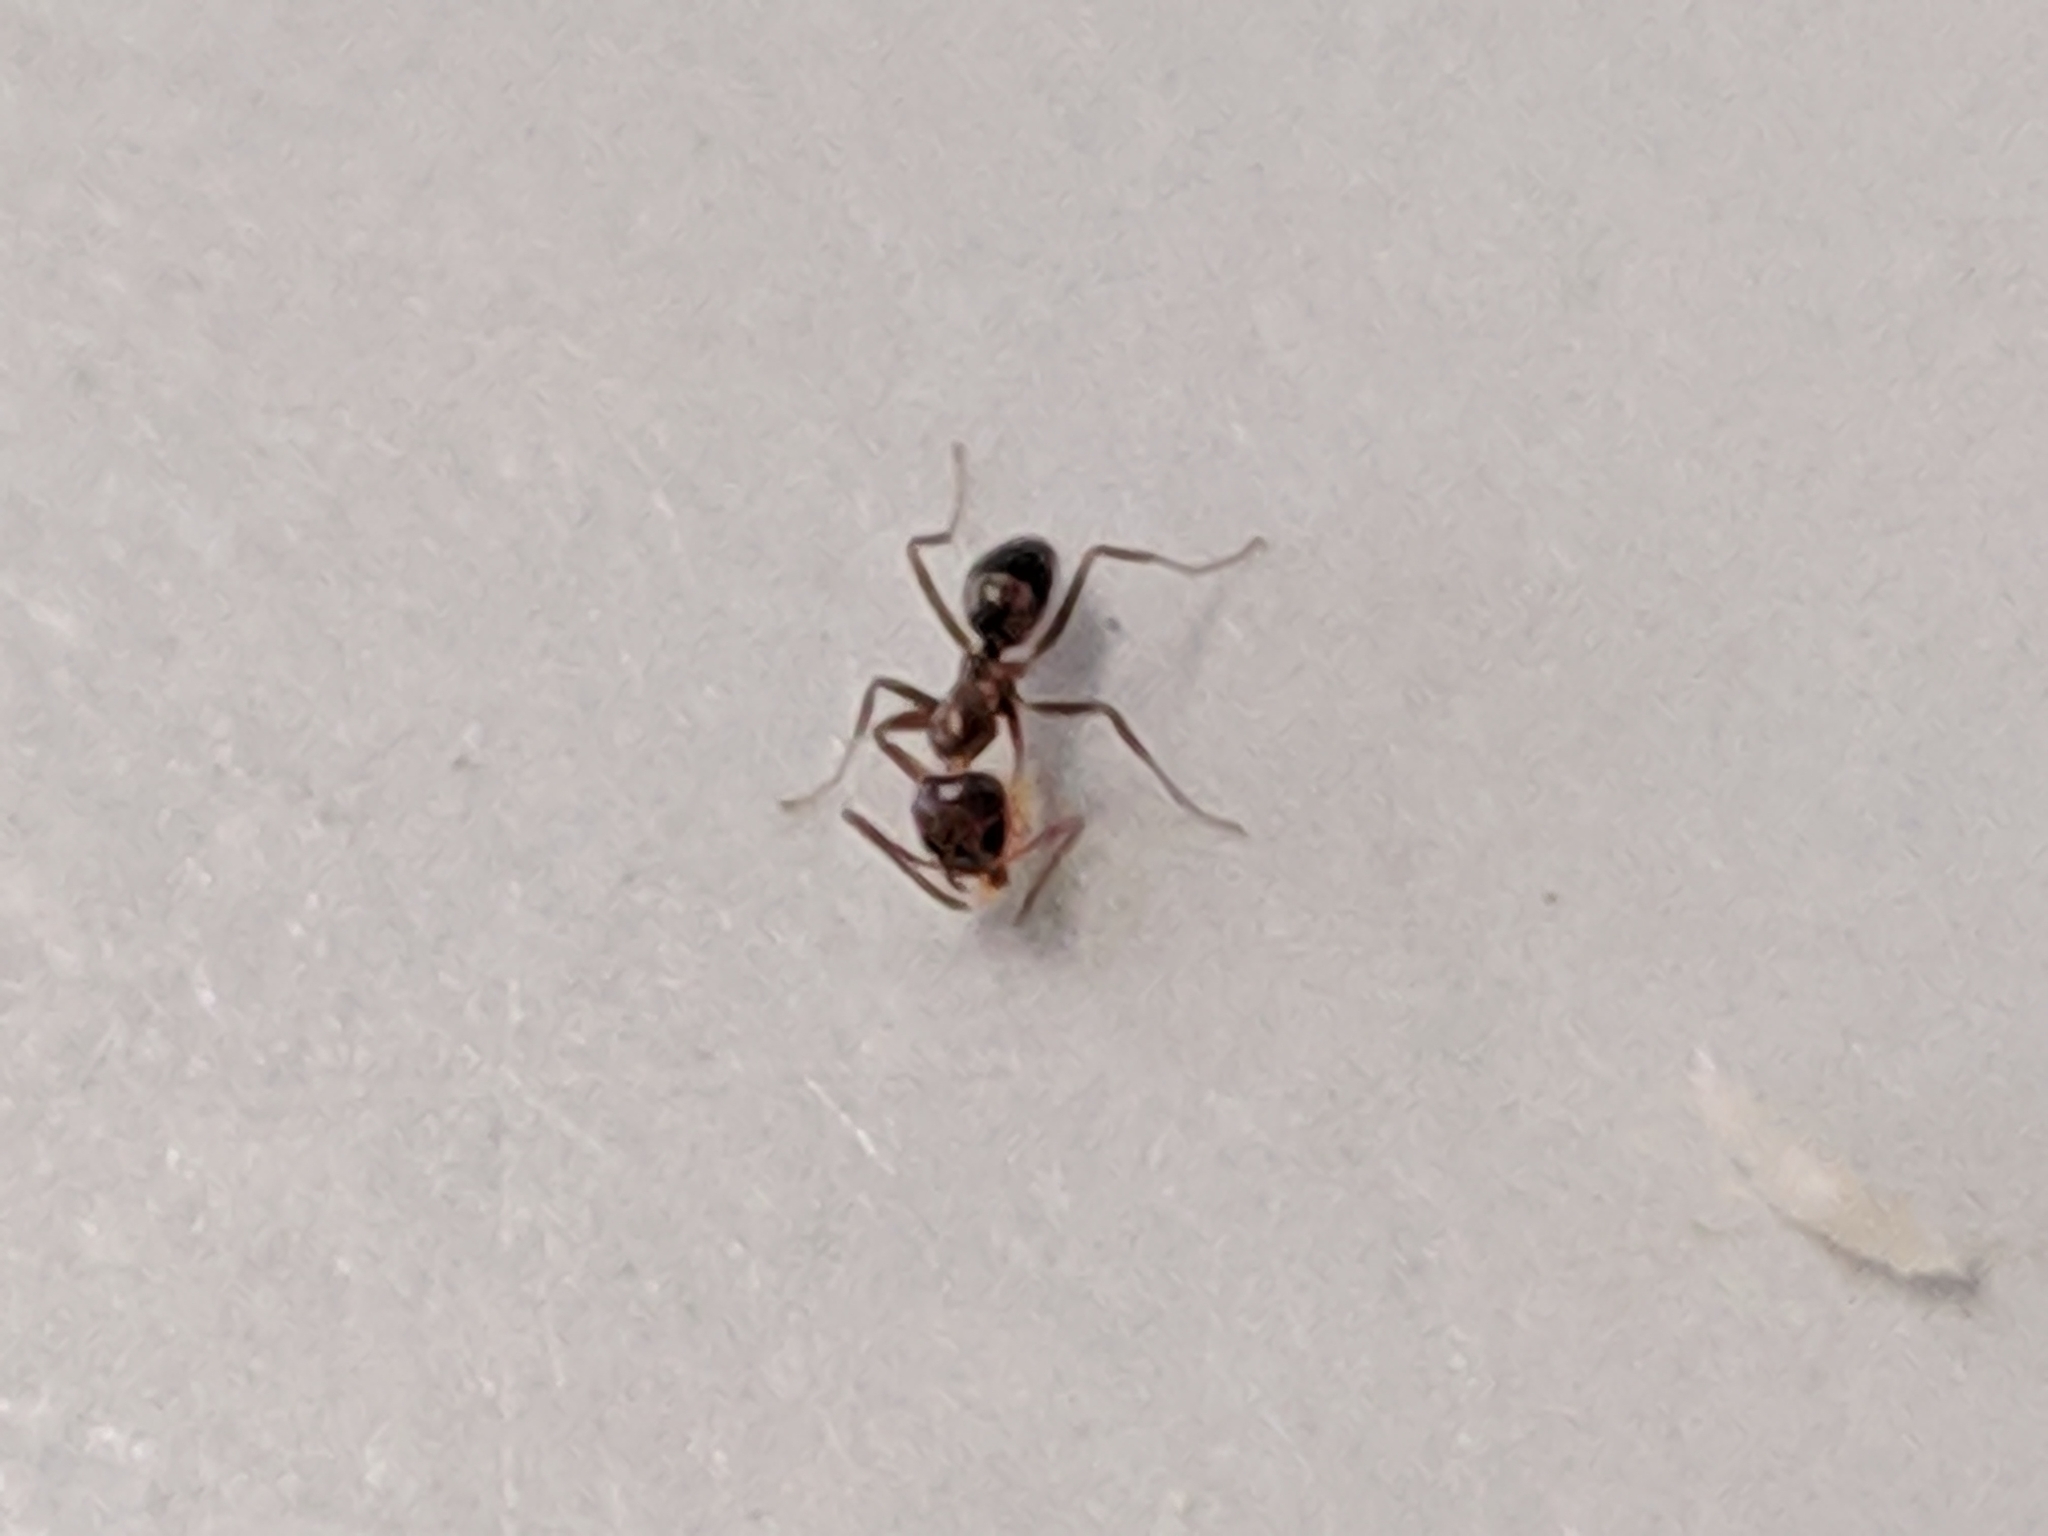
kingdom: Animalia
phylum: Arthropoda
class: Insecta
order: Hymenoptera
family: Formicidae
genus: Linepithema
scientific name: Linepithema humile
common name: Argentine ant
